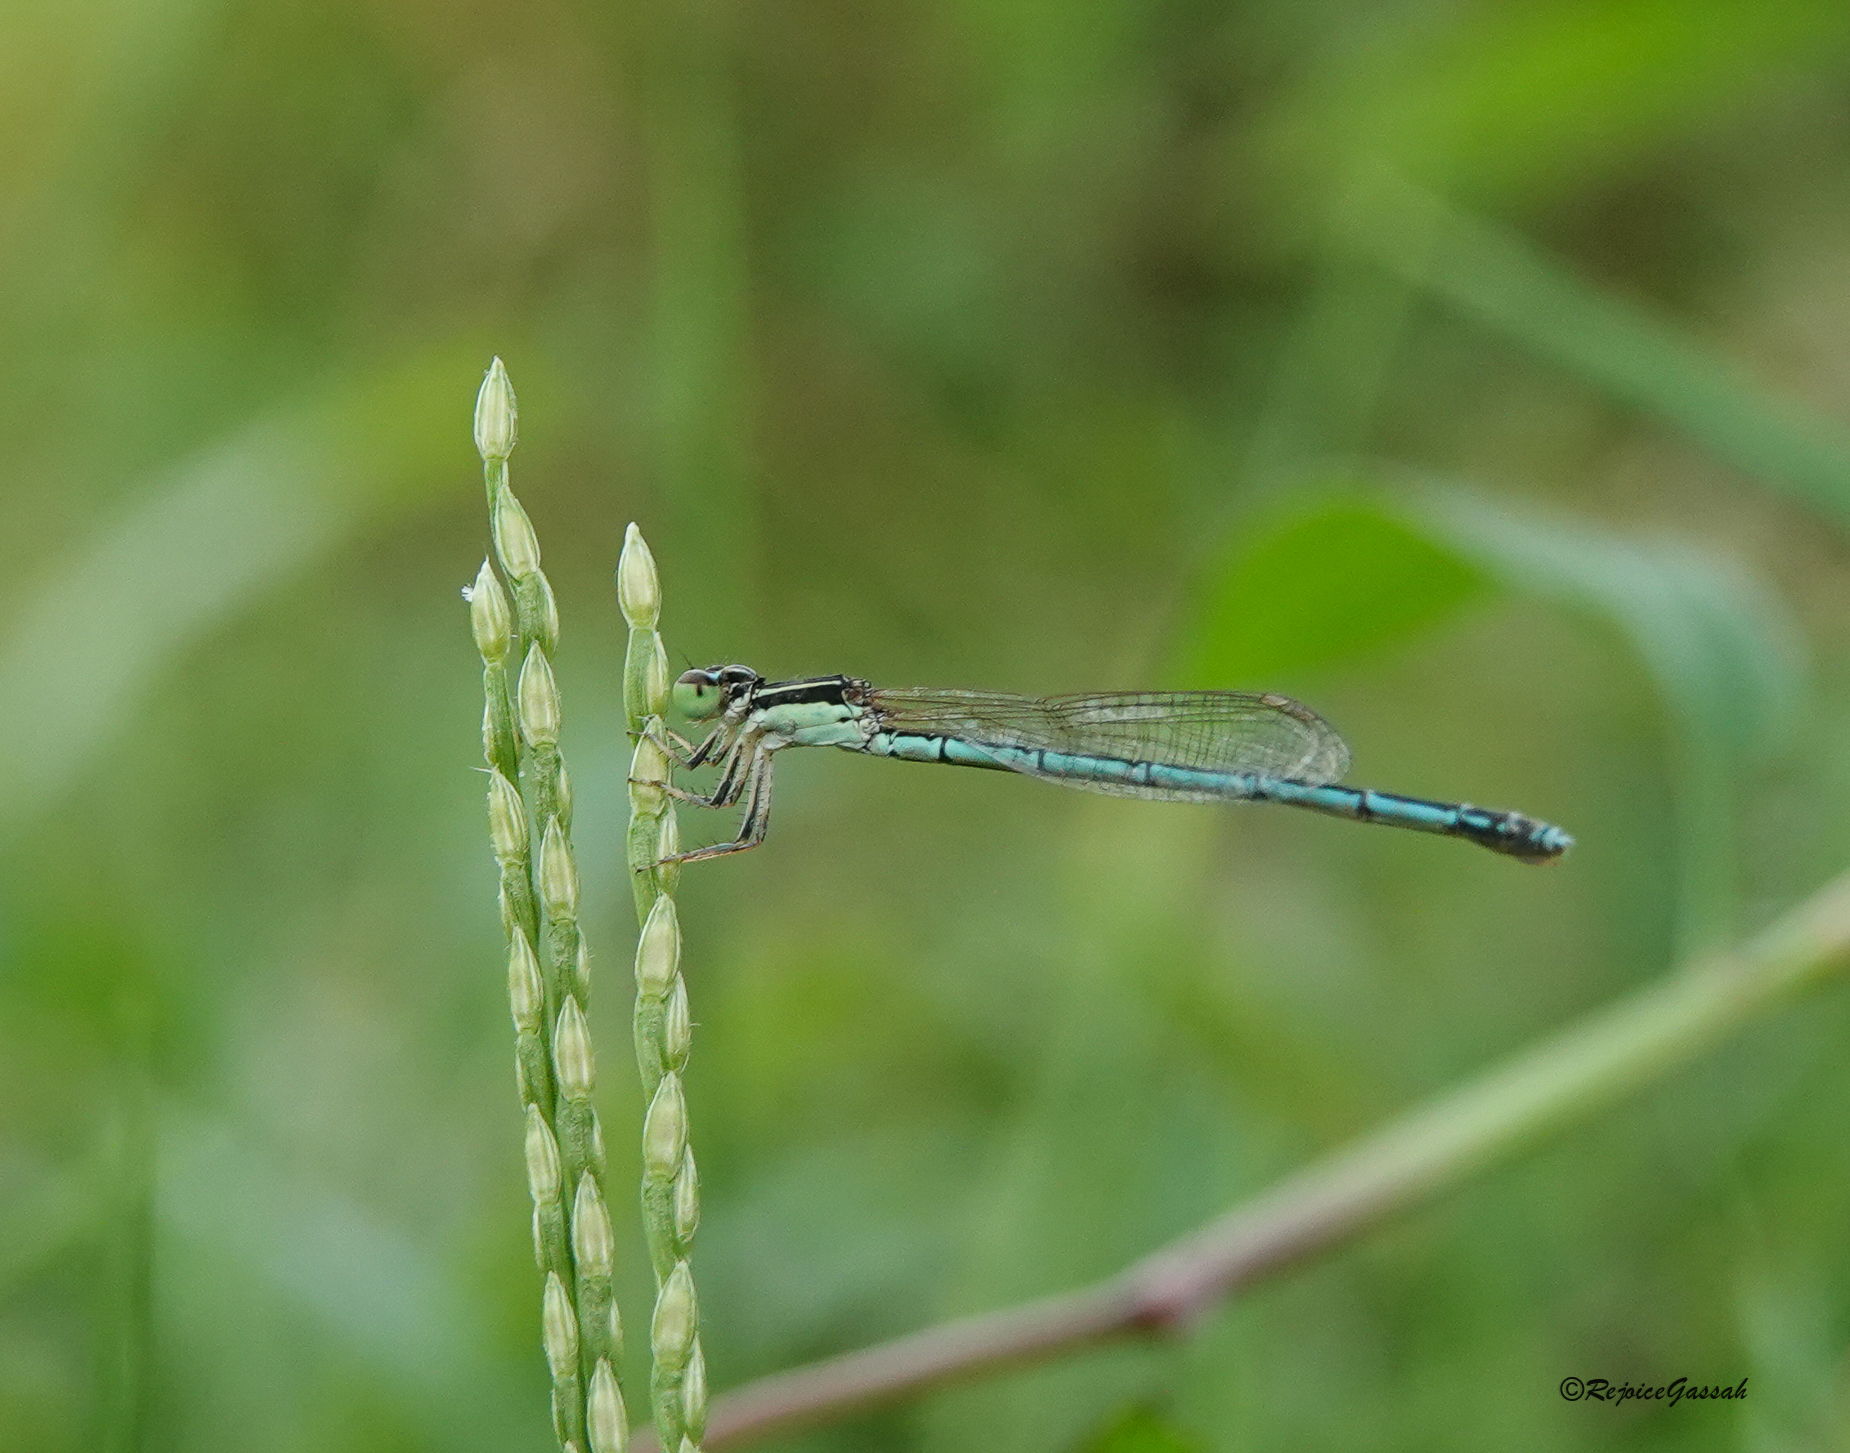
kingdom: Animalia
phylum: Arthropoda
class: Insecta
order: Odonata
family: Coenagrionidae
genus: Agriocnemis
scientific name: Agriocnemis lacteola
